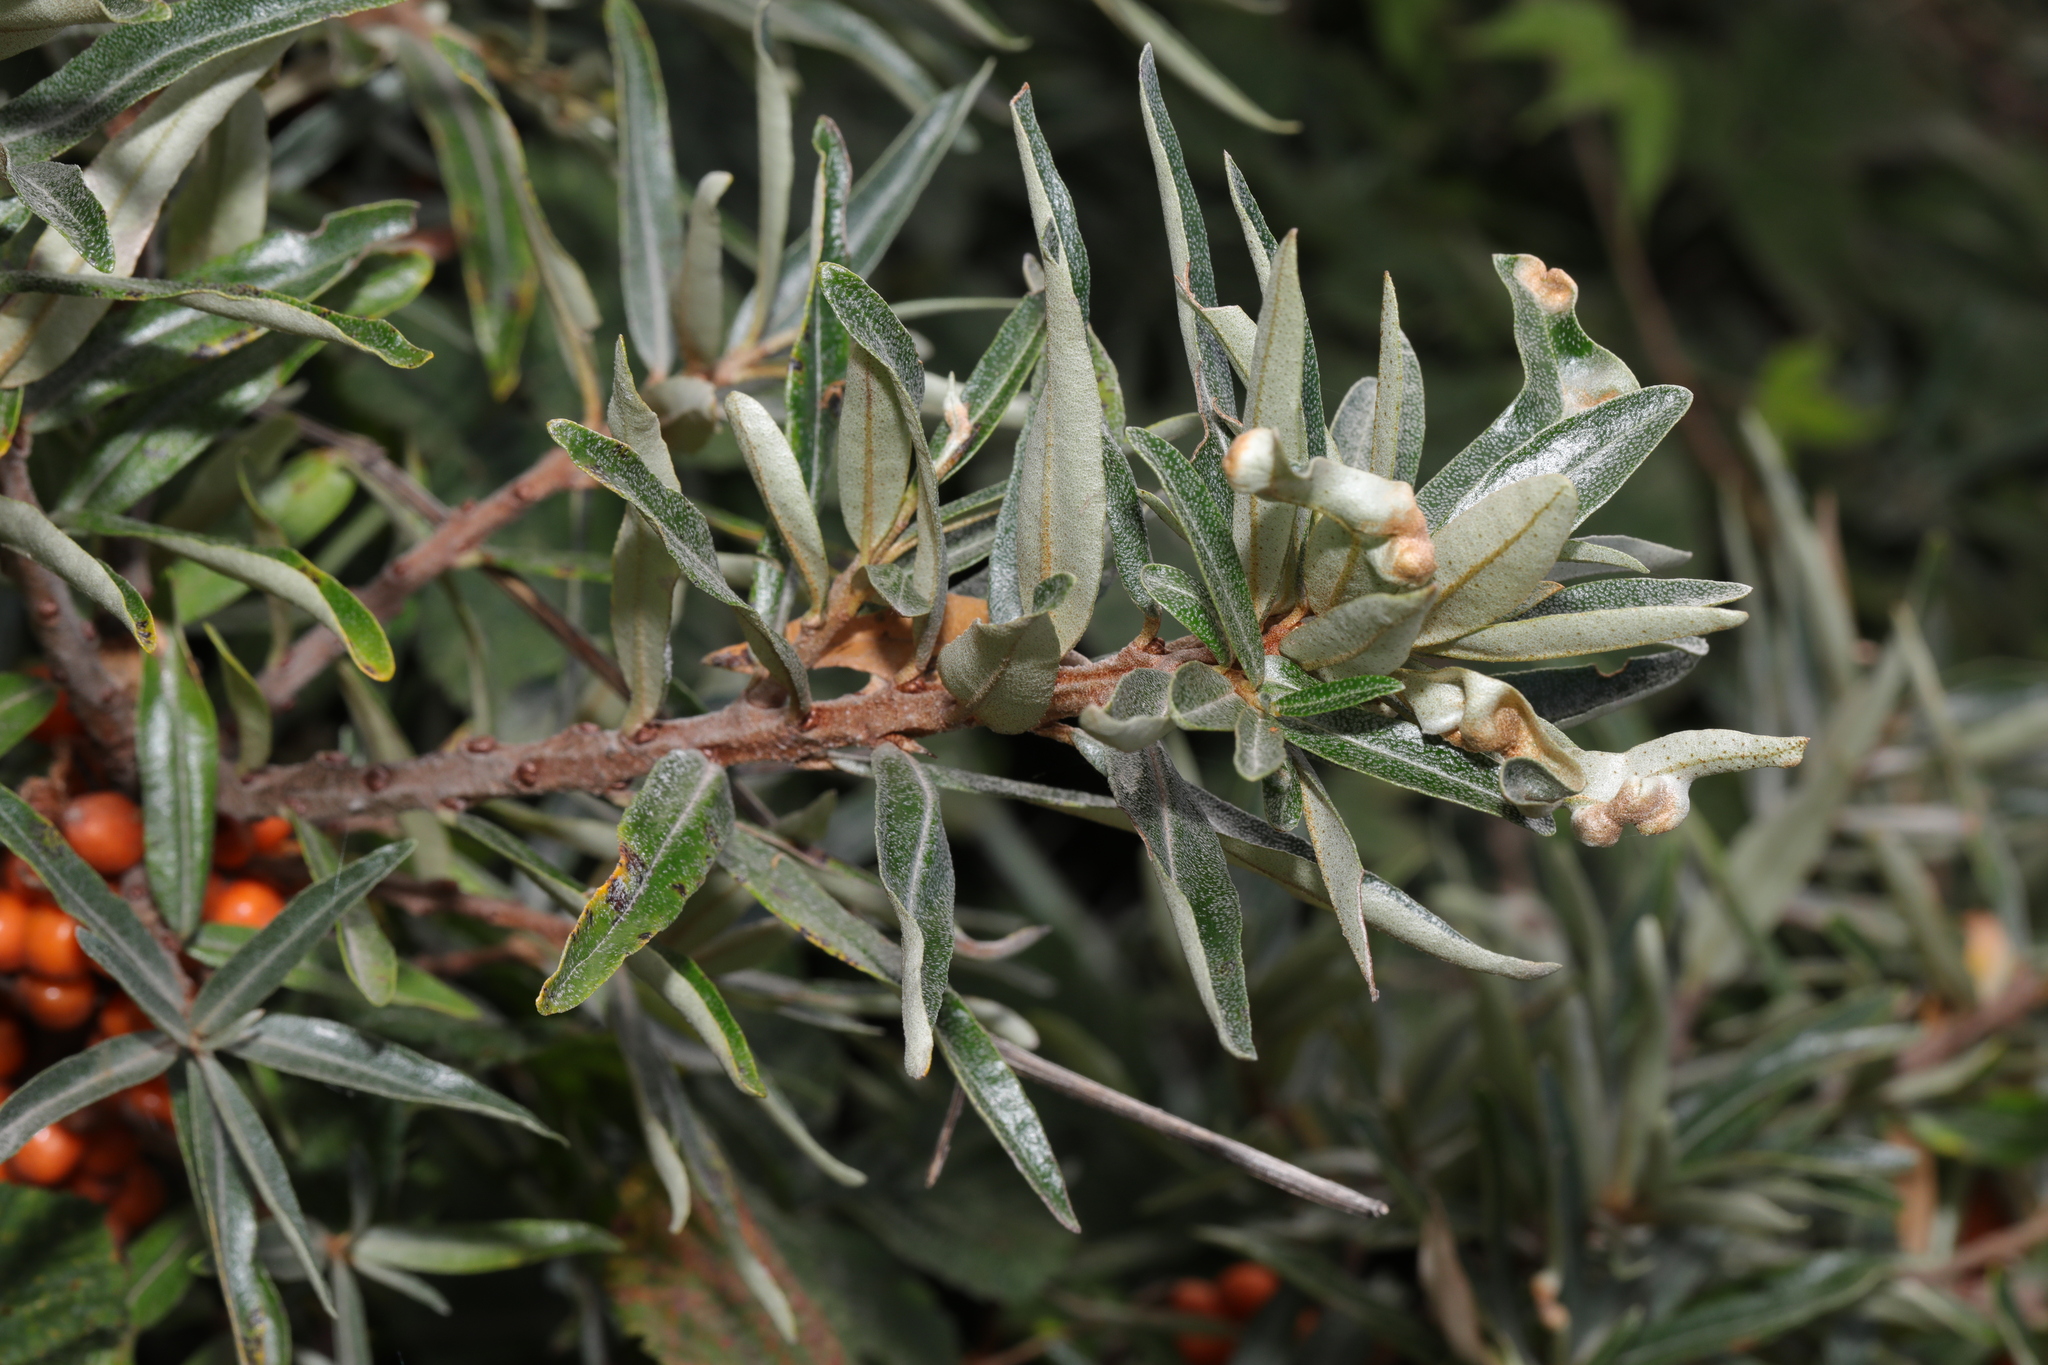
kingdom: Plantae
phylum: Tracheophyta
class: Magnoliopsida
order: Rosales
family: Elaeagnaceae
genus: Hippophae
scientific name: Hippophae rhamnoides
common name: Sea-buckthorn
